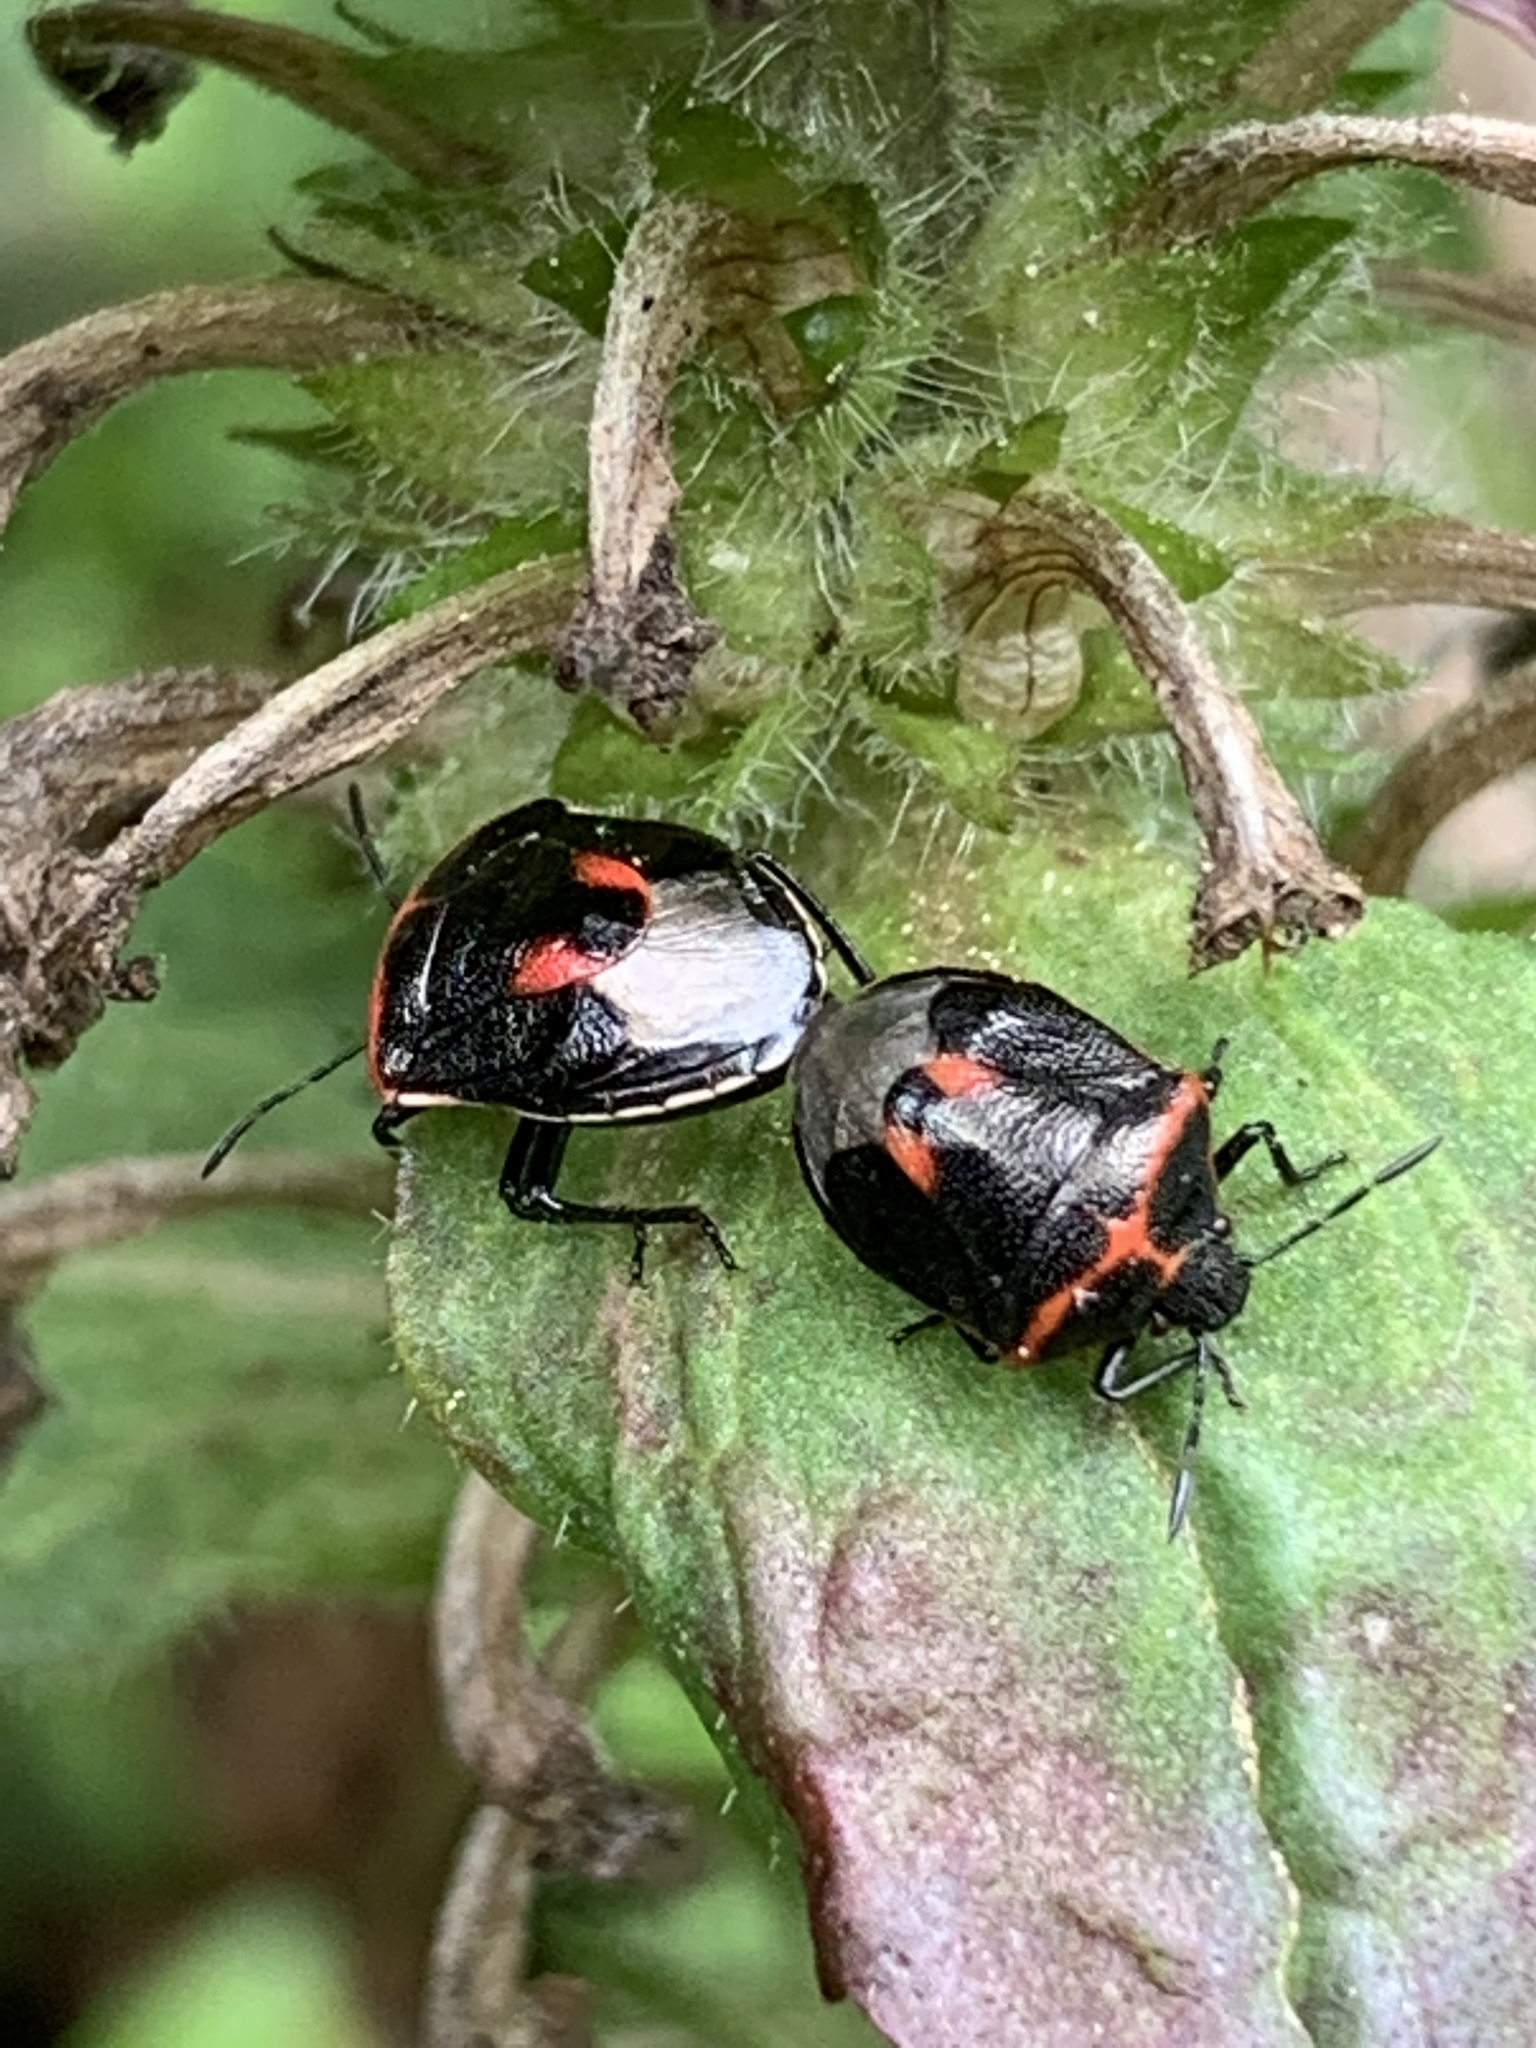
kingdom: Animalia
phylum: Arthropoda
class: Insecta
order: Hemiptera
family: Pentatomidae
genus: Cosmopepla
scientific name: Cosmopepla lintneriana
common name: Twice-stabbed stink bug
